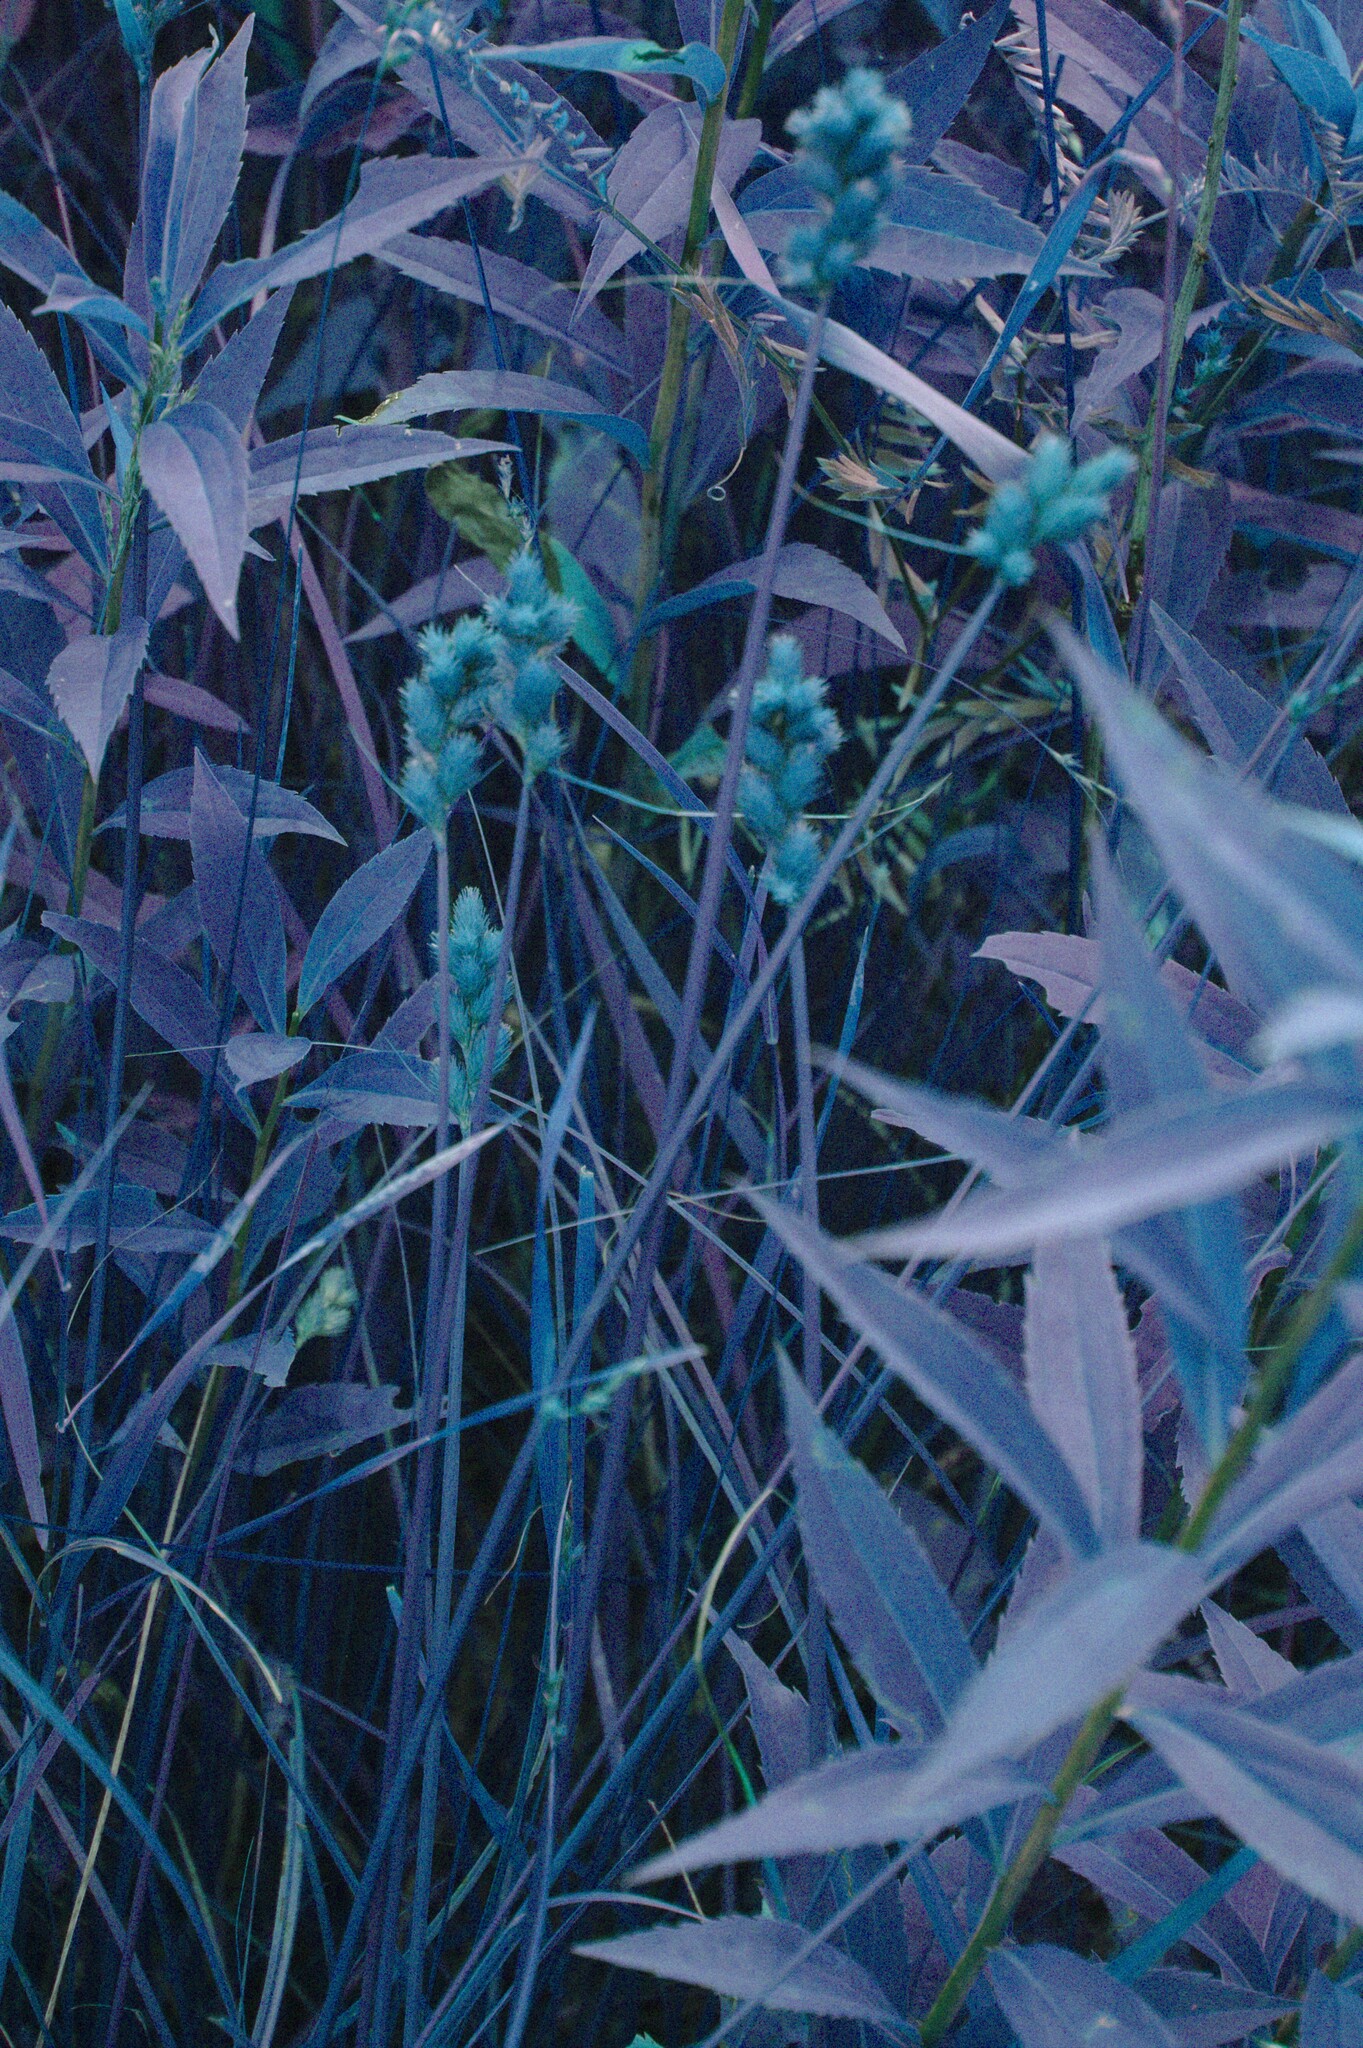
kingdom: Plantae
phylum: Tracheophyta
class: Magnoliopsida
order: Asterales
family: Asteraceae
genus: Solidago
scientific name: Solidago gigantea
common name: Giant goldenrod
